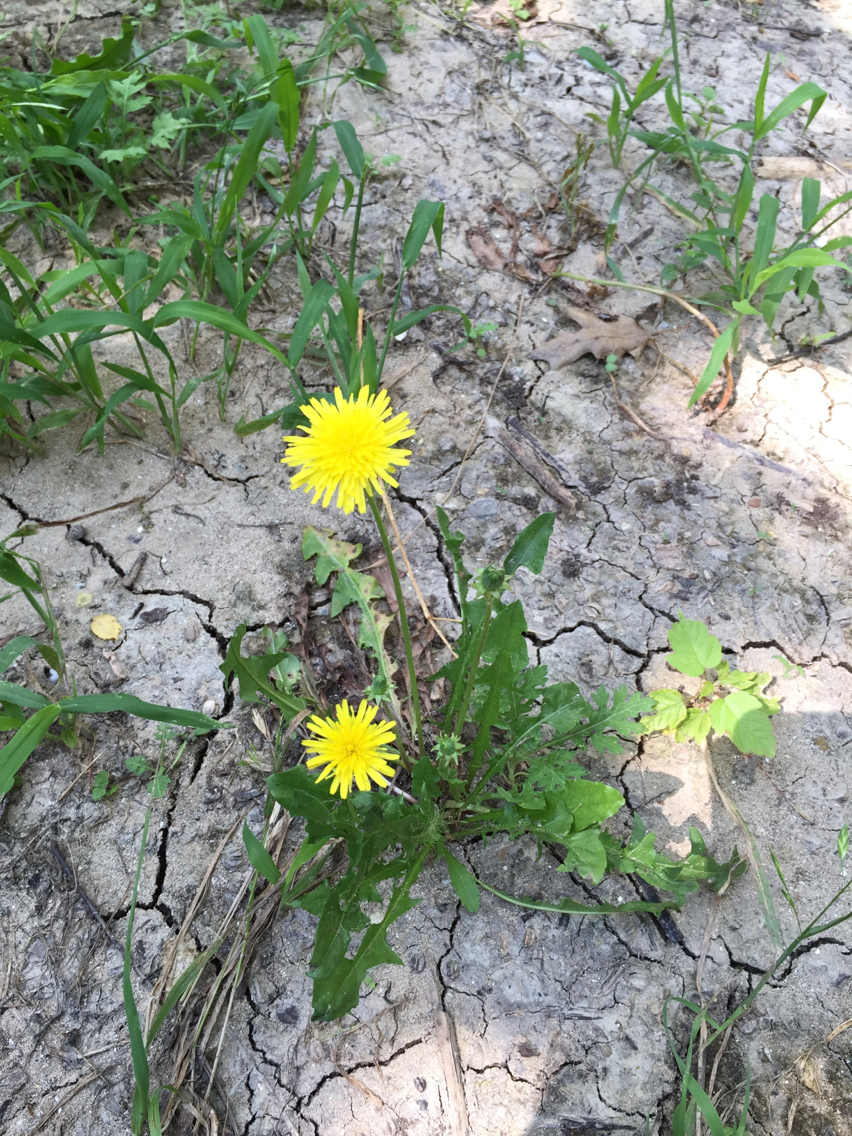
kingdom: Plantae
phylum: Tracheophyta
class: Magnoliopsida
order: Asterales
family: Asteraceae
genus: Taraxacum
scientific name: Taraxacum officinale
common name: Common dandelion
